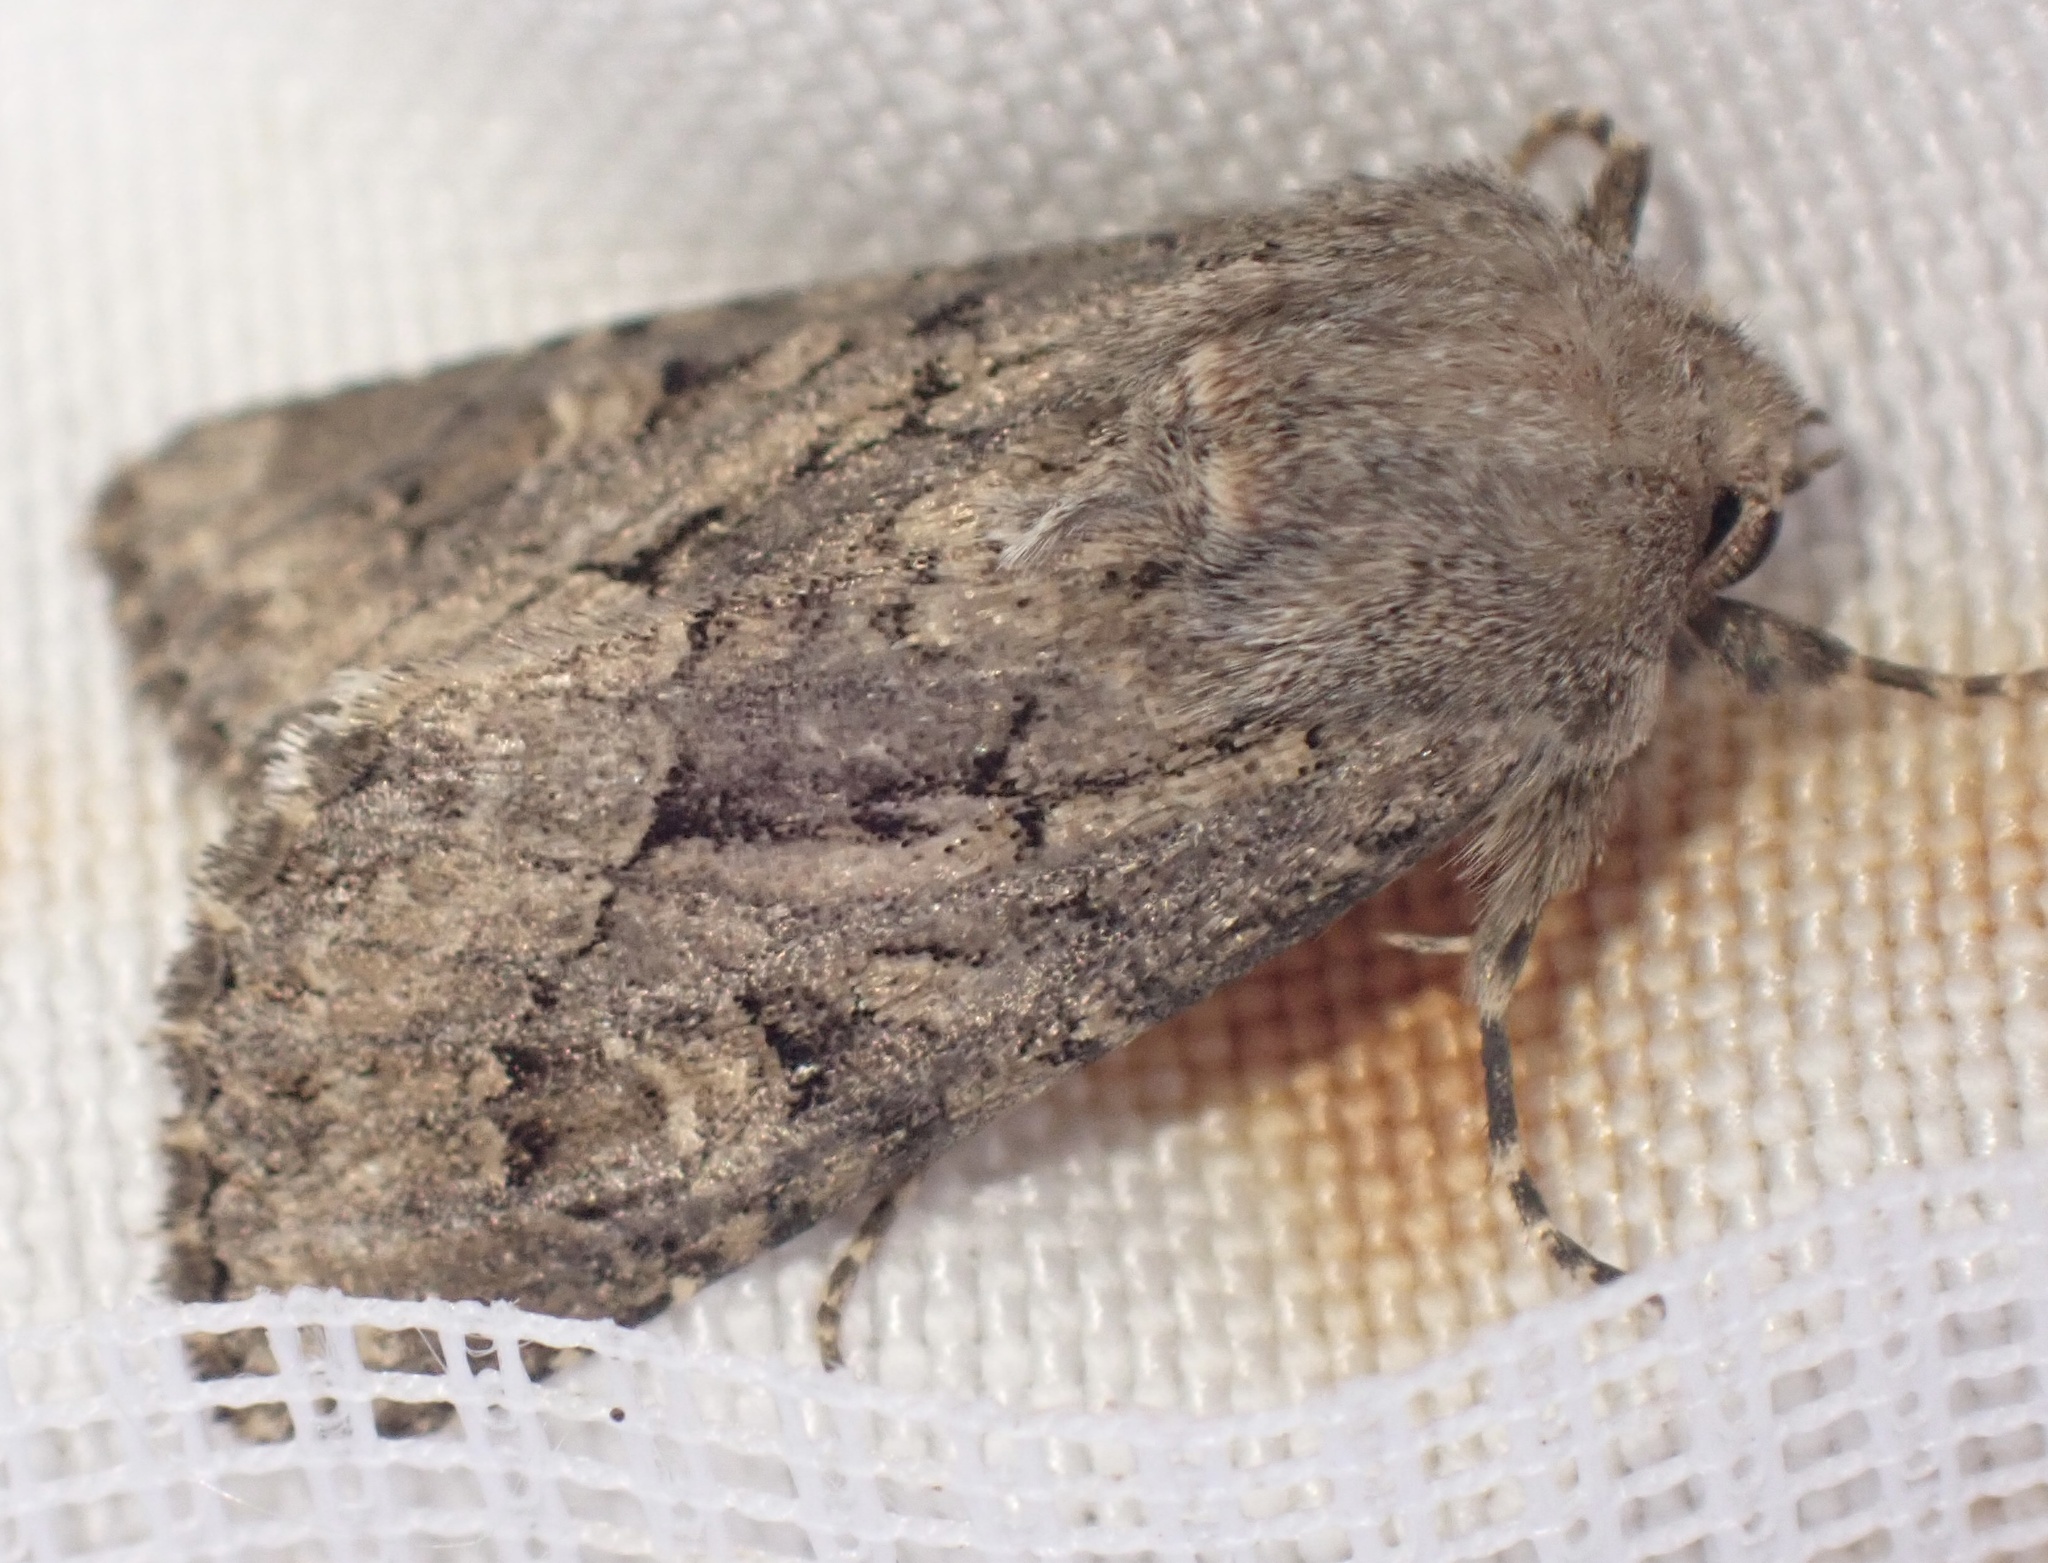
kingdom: Animalia
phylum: Arthropoda
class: Insecta
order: Lepidoptera
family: Noctuidae
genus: Luperina
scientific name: Luperina testacea
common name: Flounced rustic
